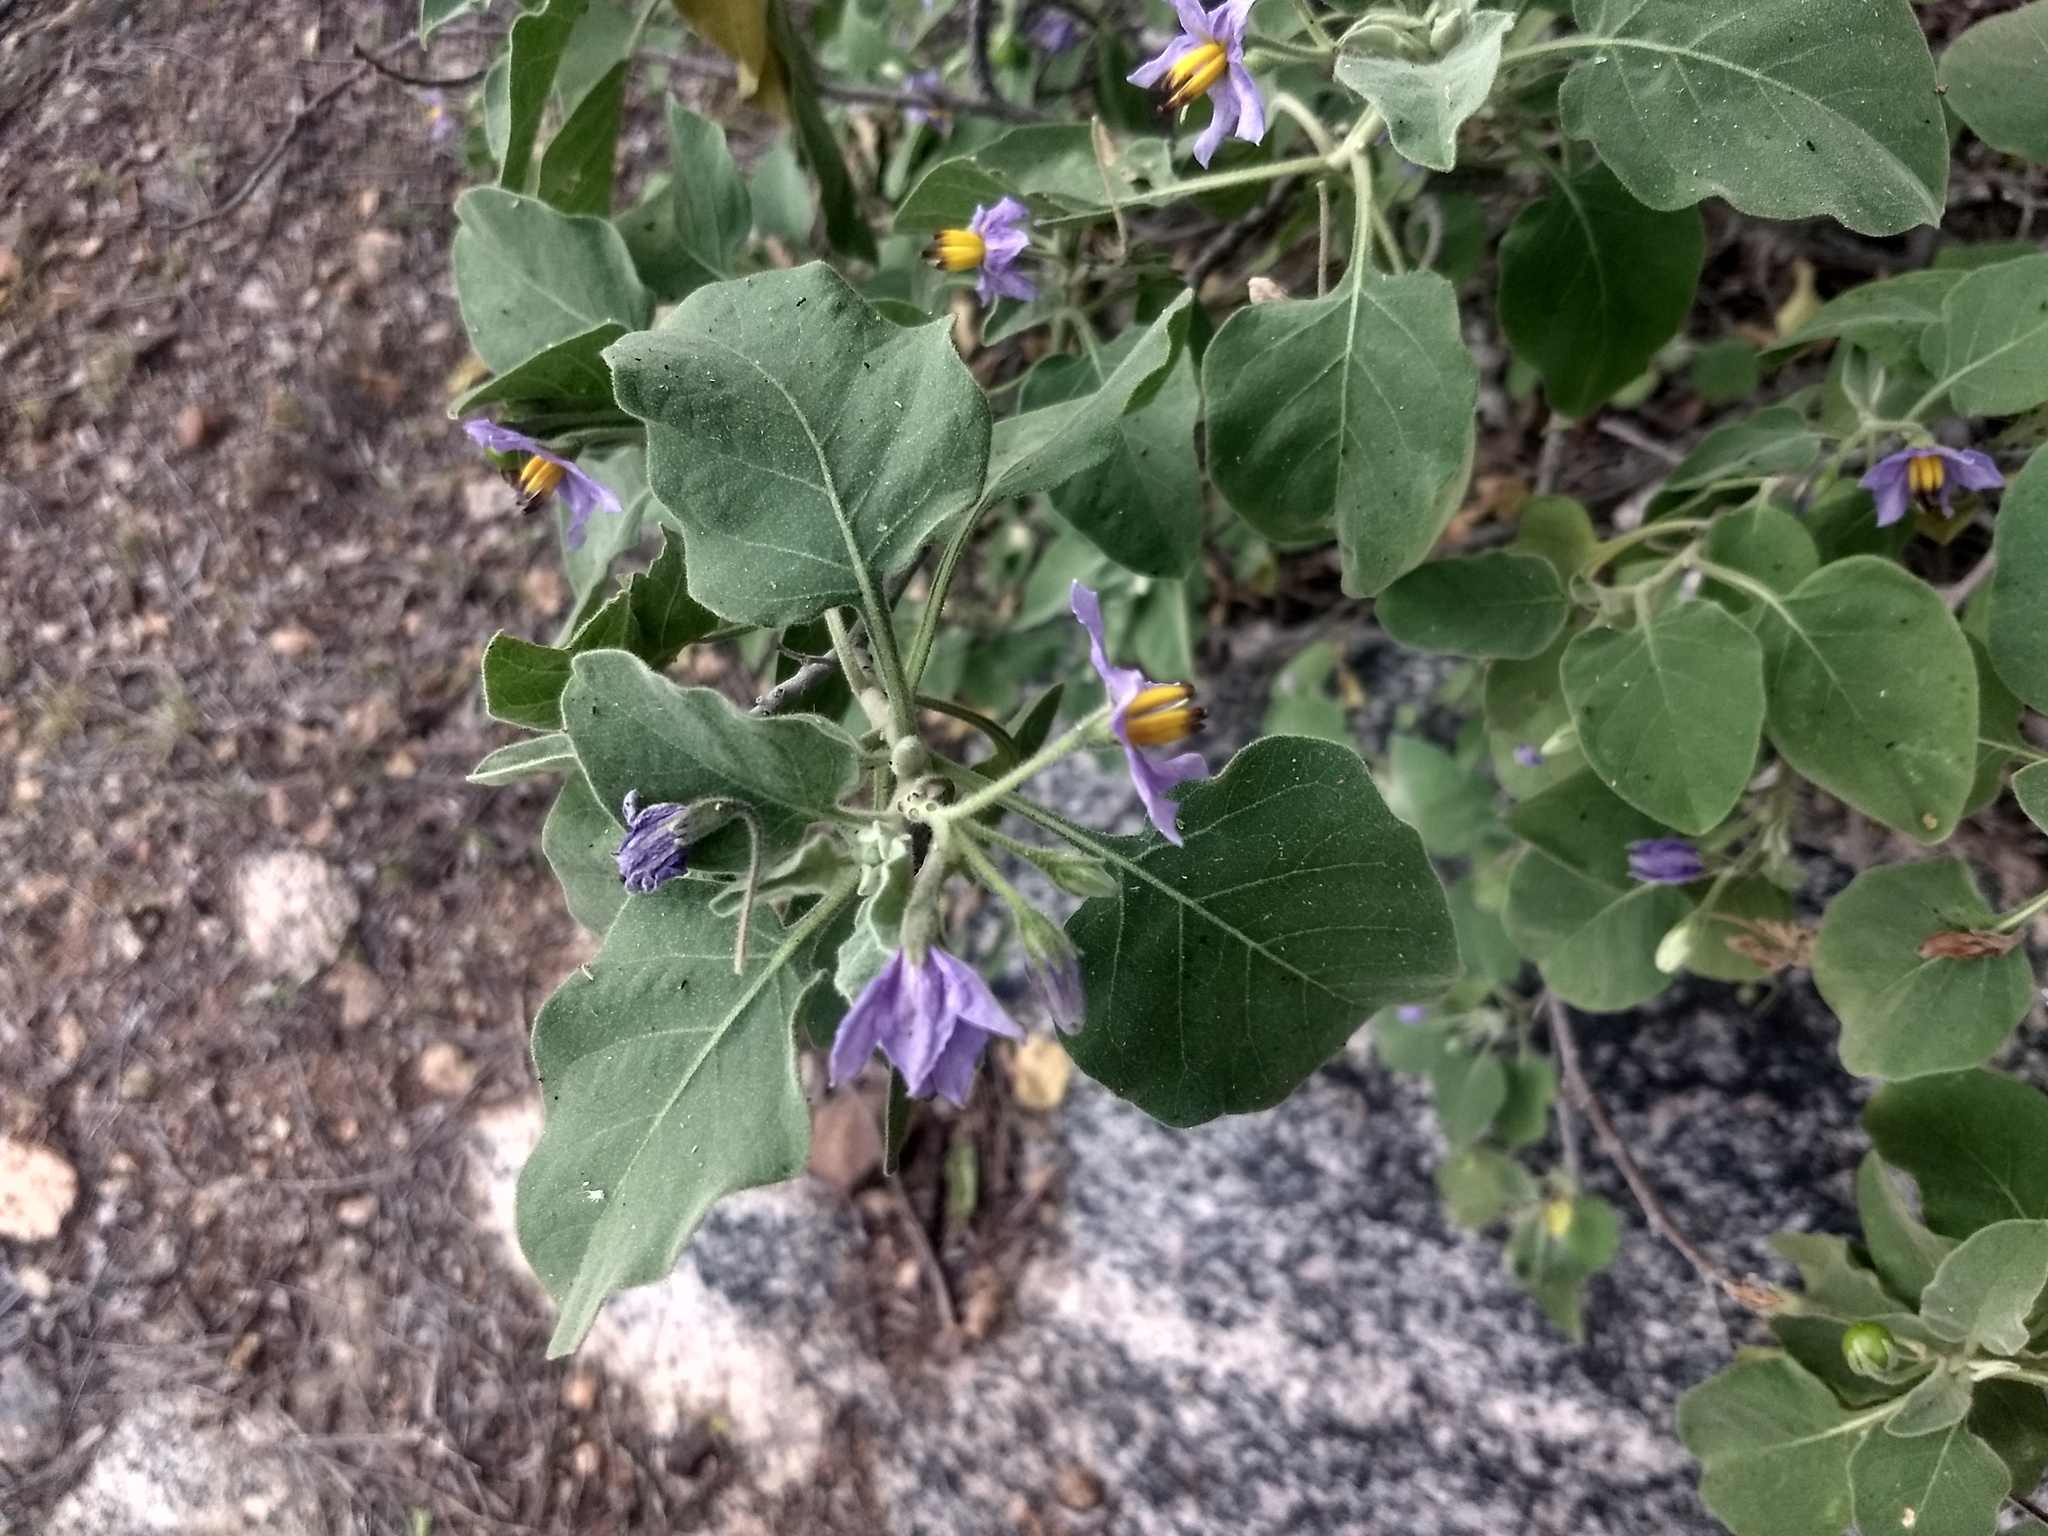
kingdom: Plantae
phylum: Tracheophyta
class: Magnoliopsida
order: Solanales
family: Solanaceae
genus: Solanum
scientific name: Solanum pubescens
